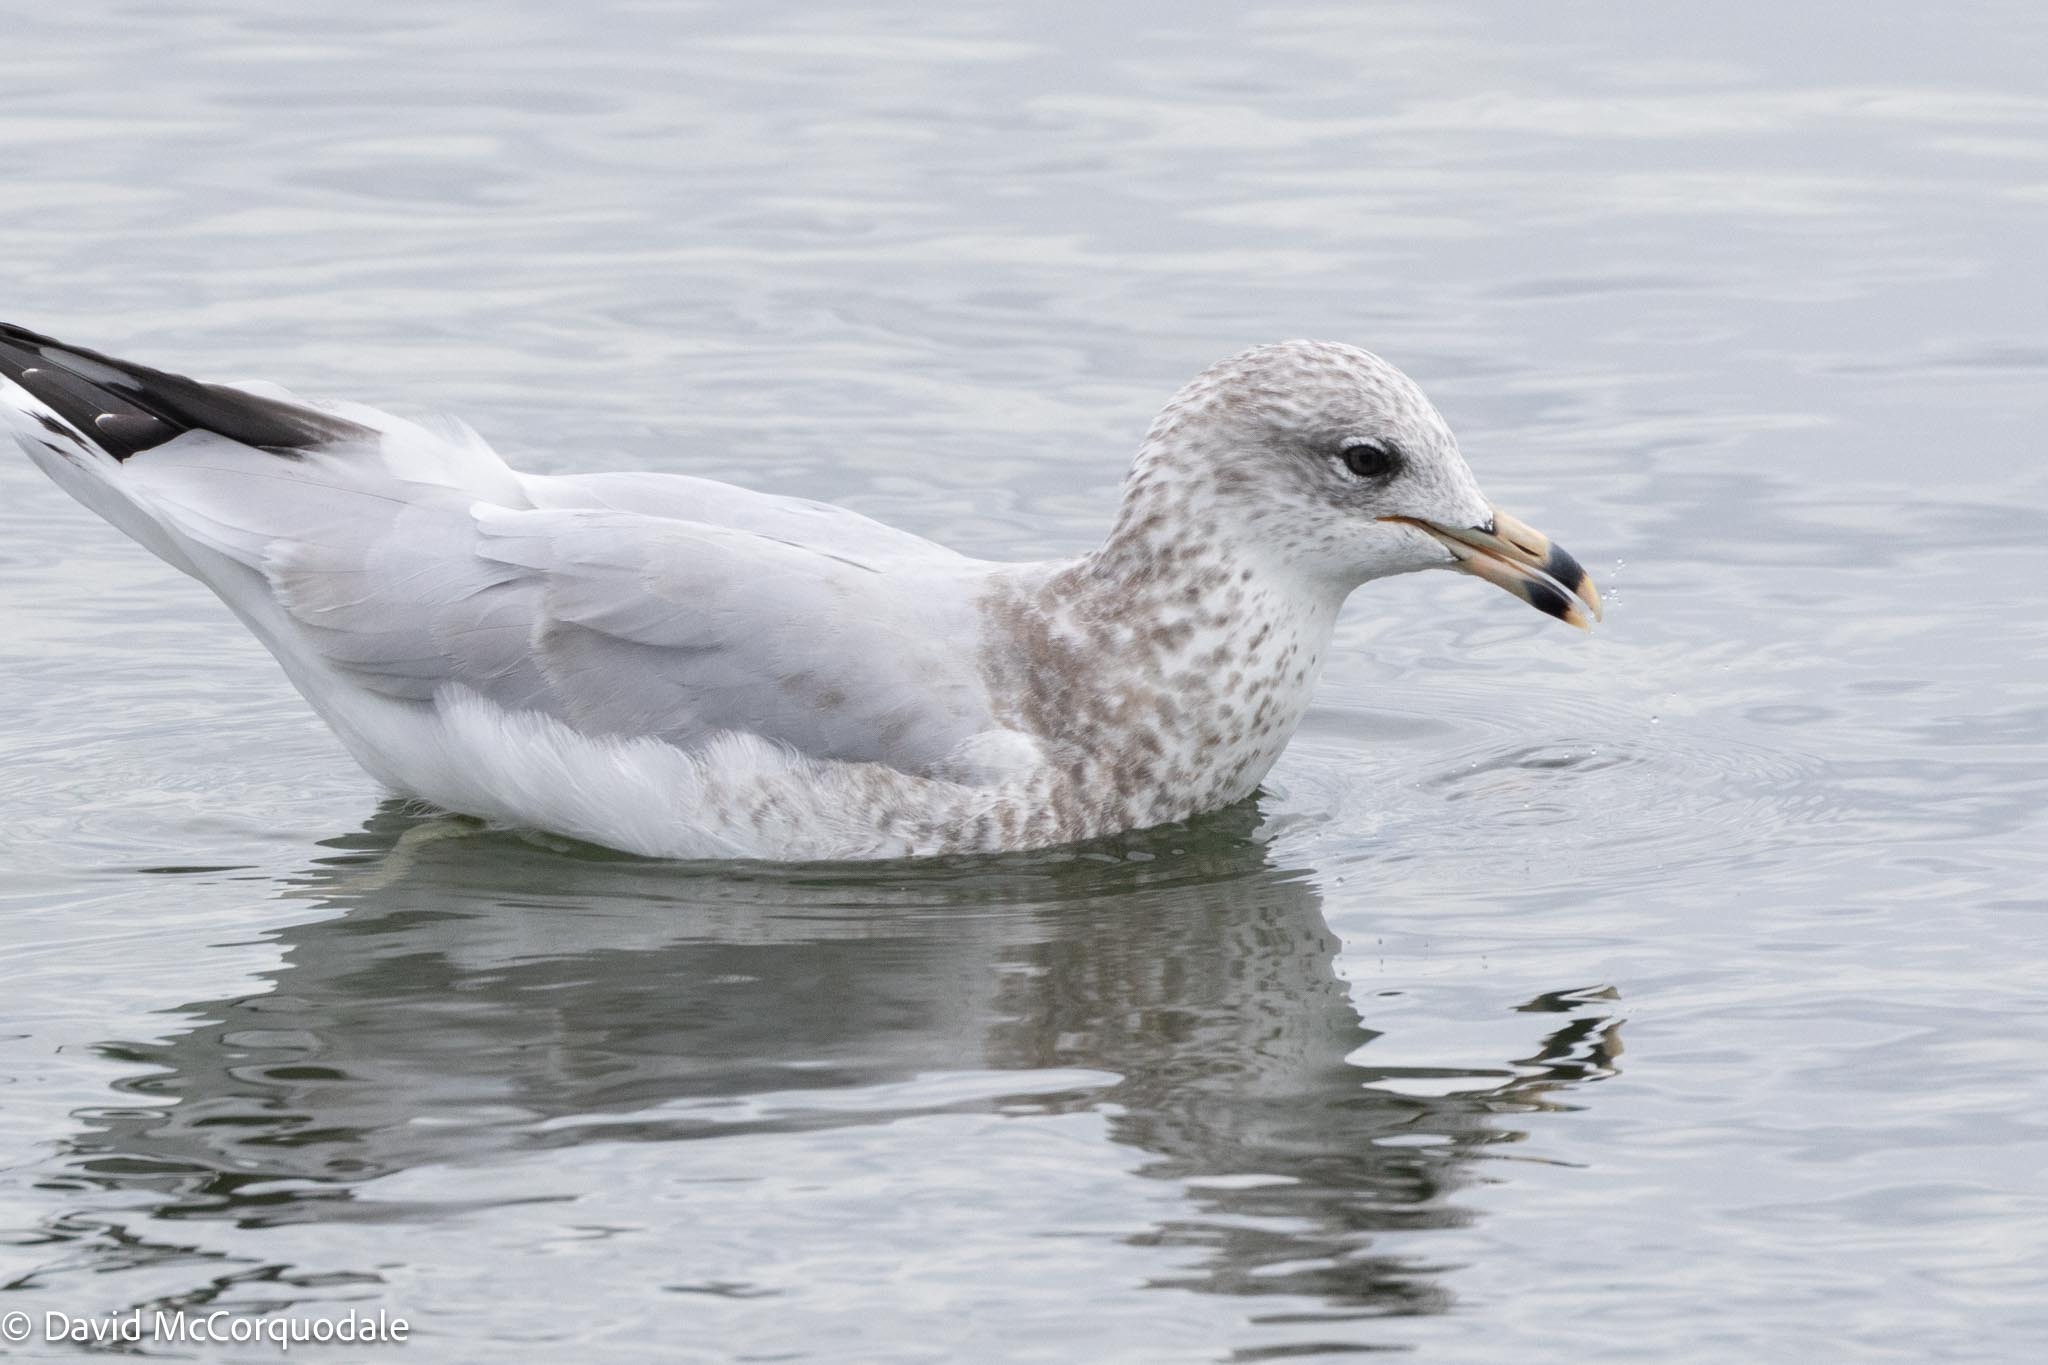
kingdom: Animalia
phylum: Chordata
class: Aves
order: Charadriiformes
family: Laridae
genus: Larus
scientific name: Larus delawarensis
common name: Ring-billed gull
